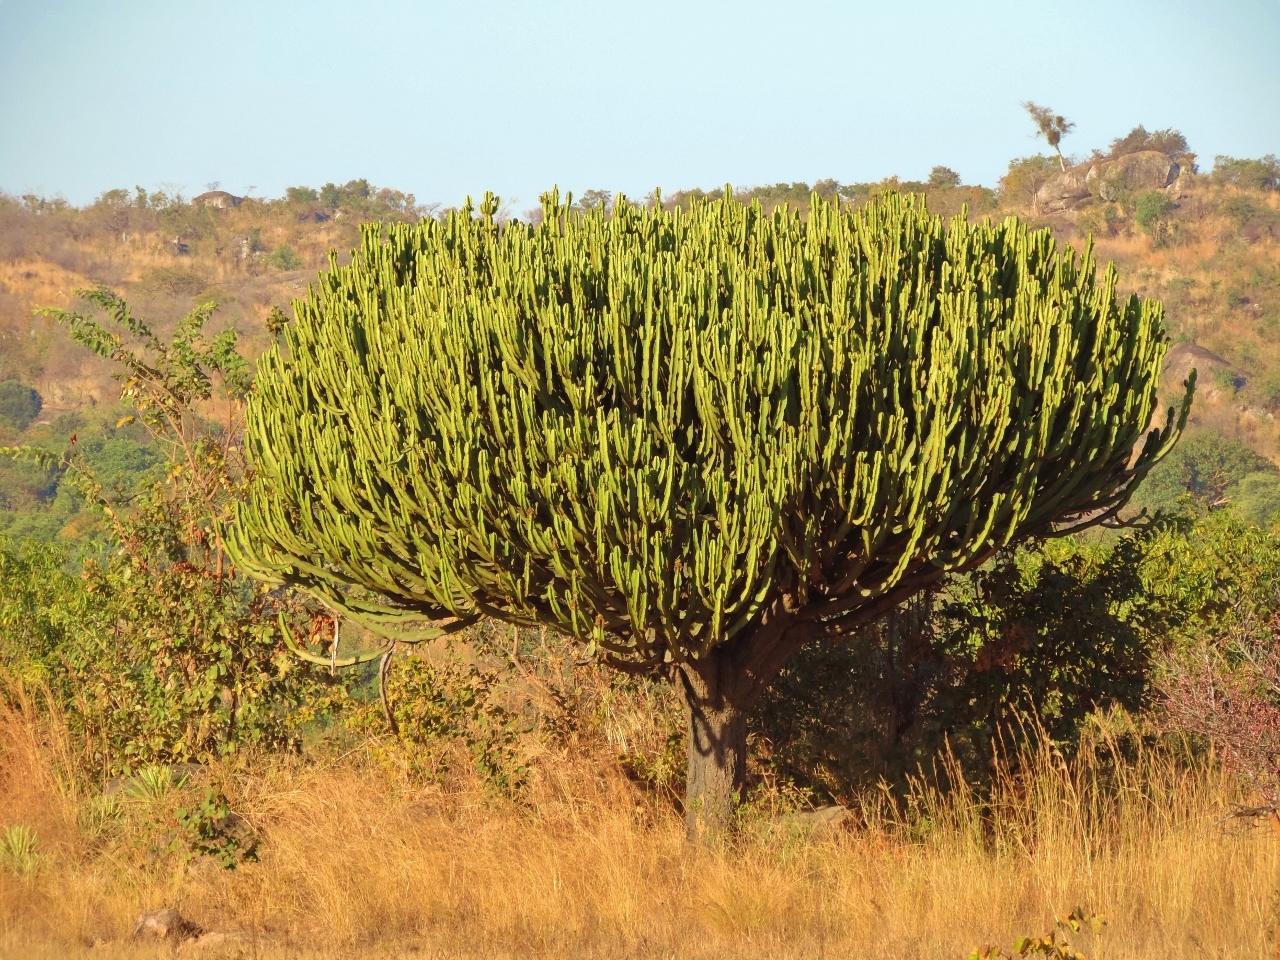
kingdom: Plantae
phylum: Tracheophyta
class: Magnoliopsida
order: Malpighiales
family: Euphorbiaceae
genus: Euphorbia
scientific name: Euphorbia ingens
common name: Cactus spurge
